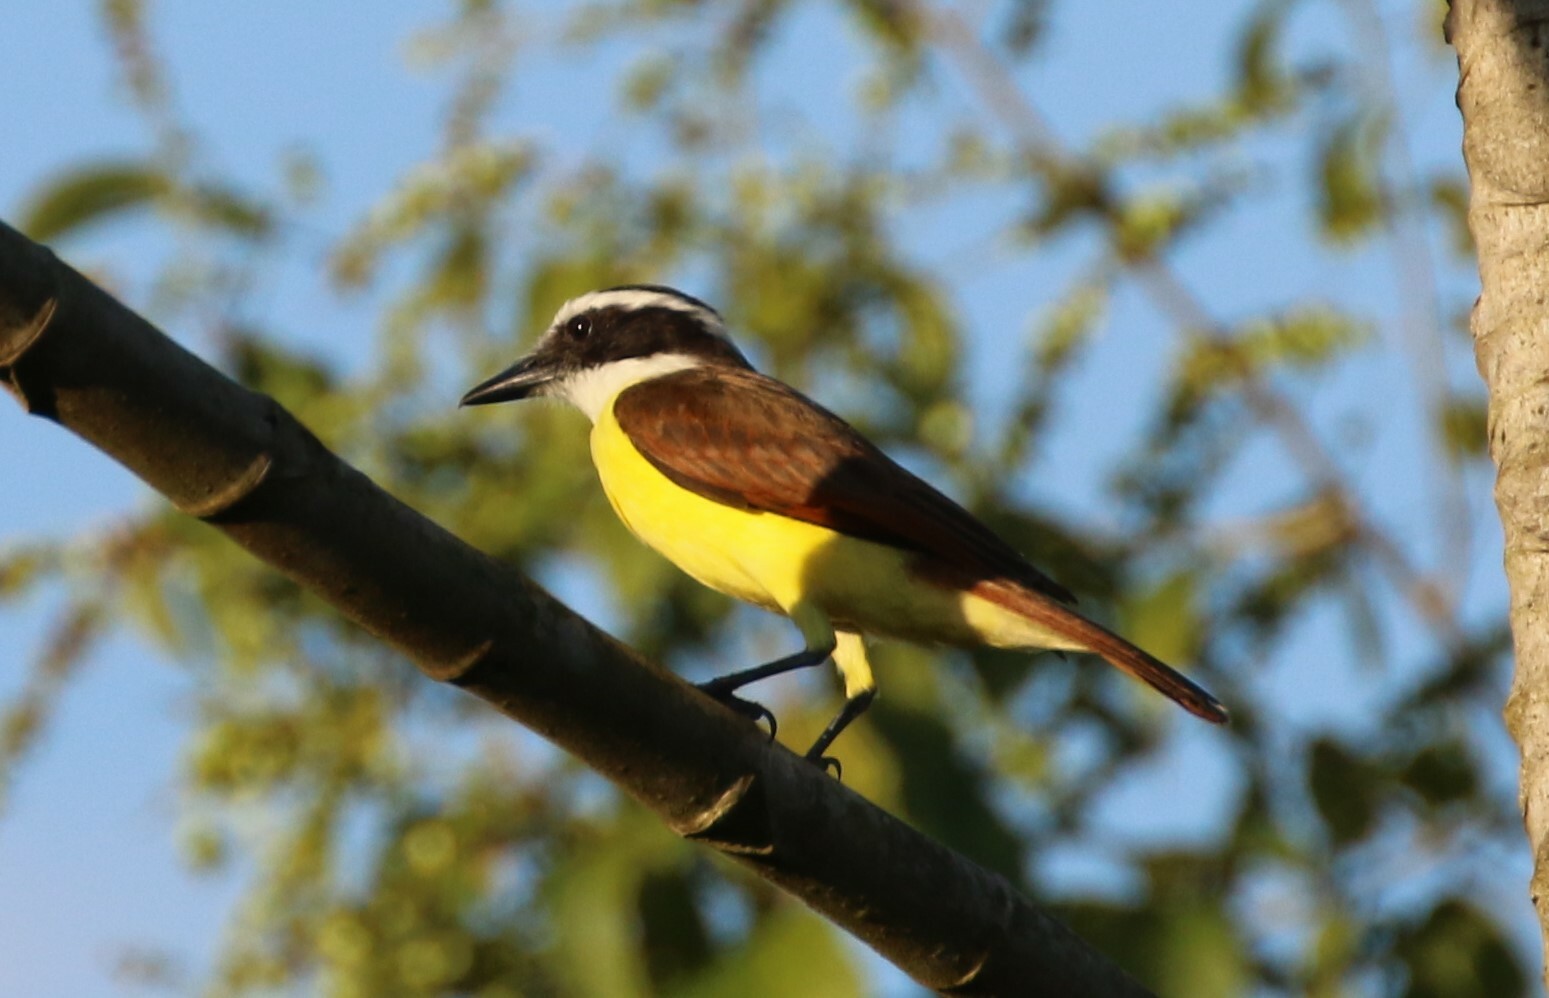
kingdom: Animalia
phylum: Chordata
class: Aves
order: Passeriformes
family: Tyrannidae
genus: Pitangus
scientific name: Pitangus sulphuratus
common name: Great kiskadee
